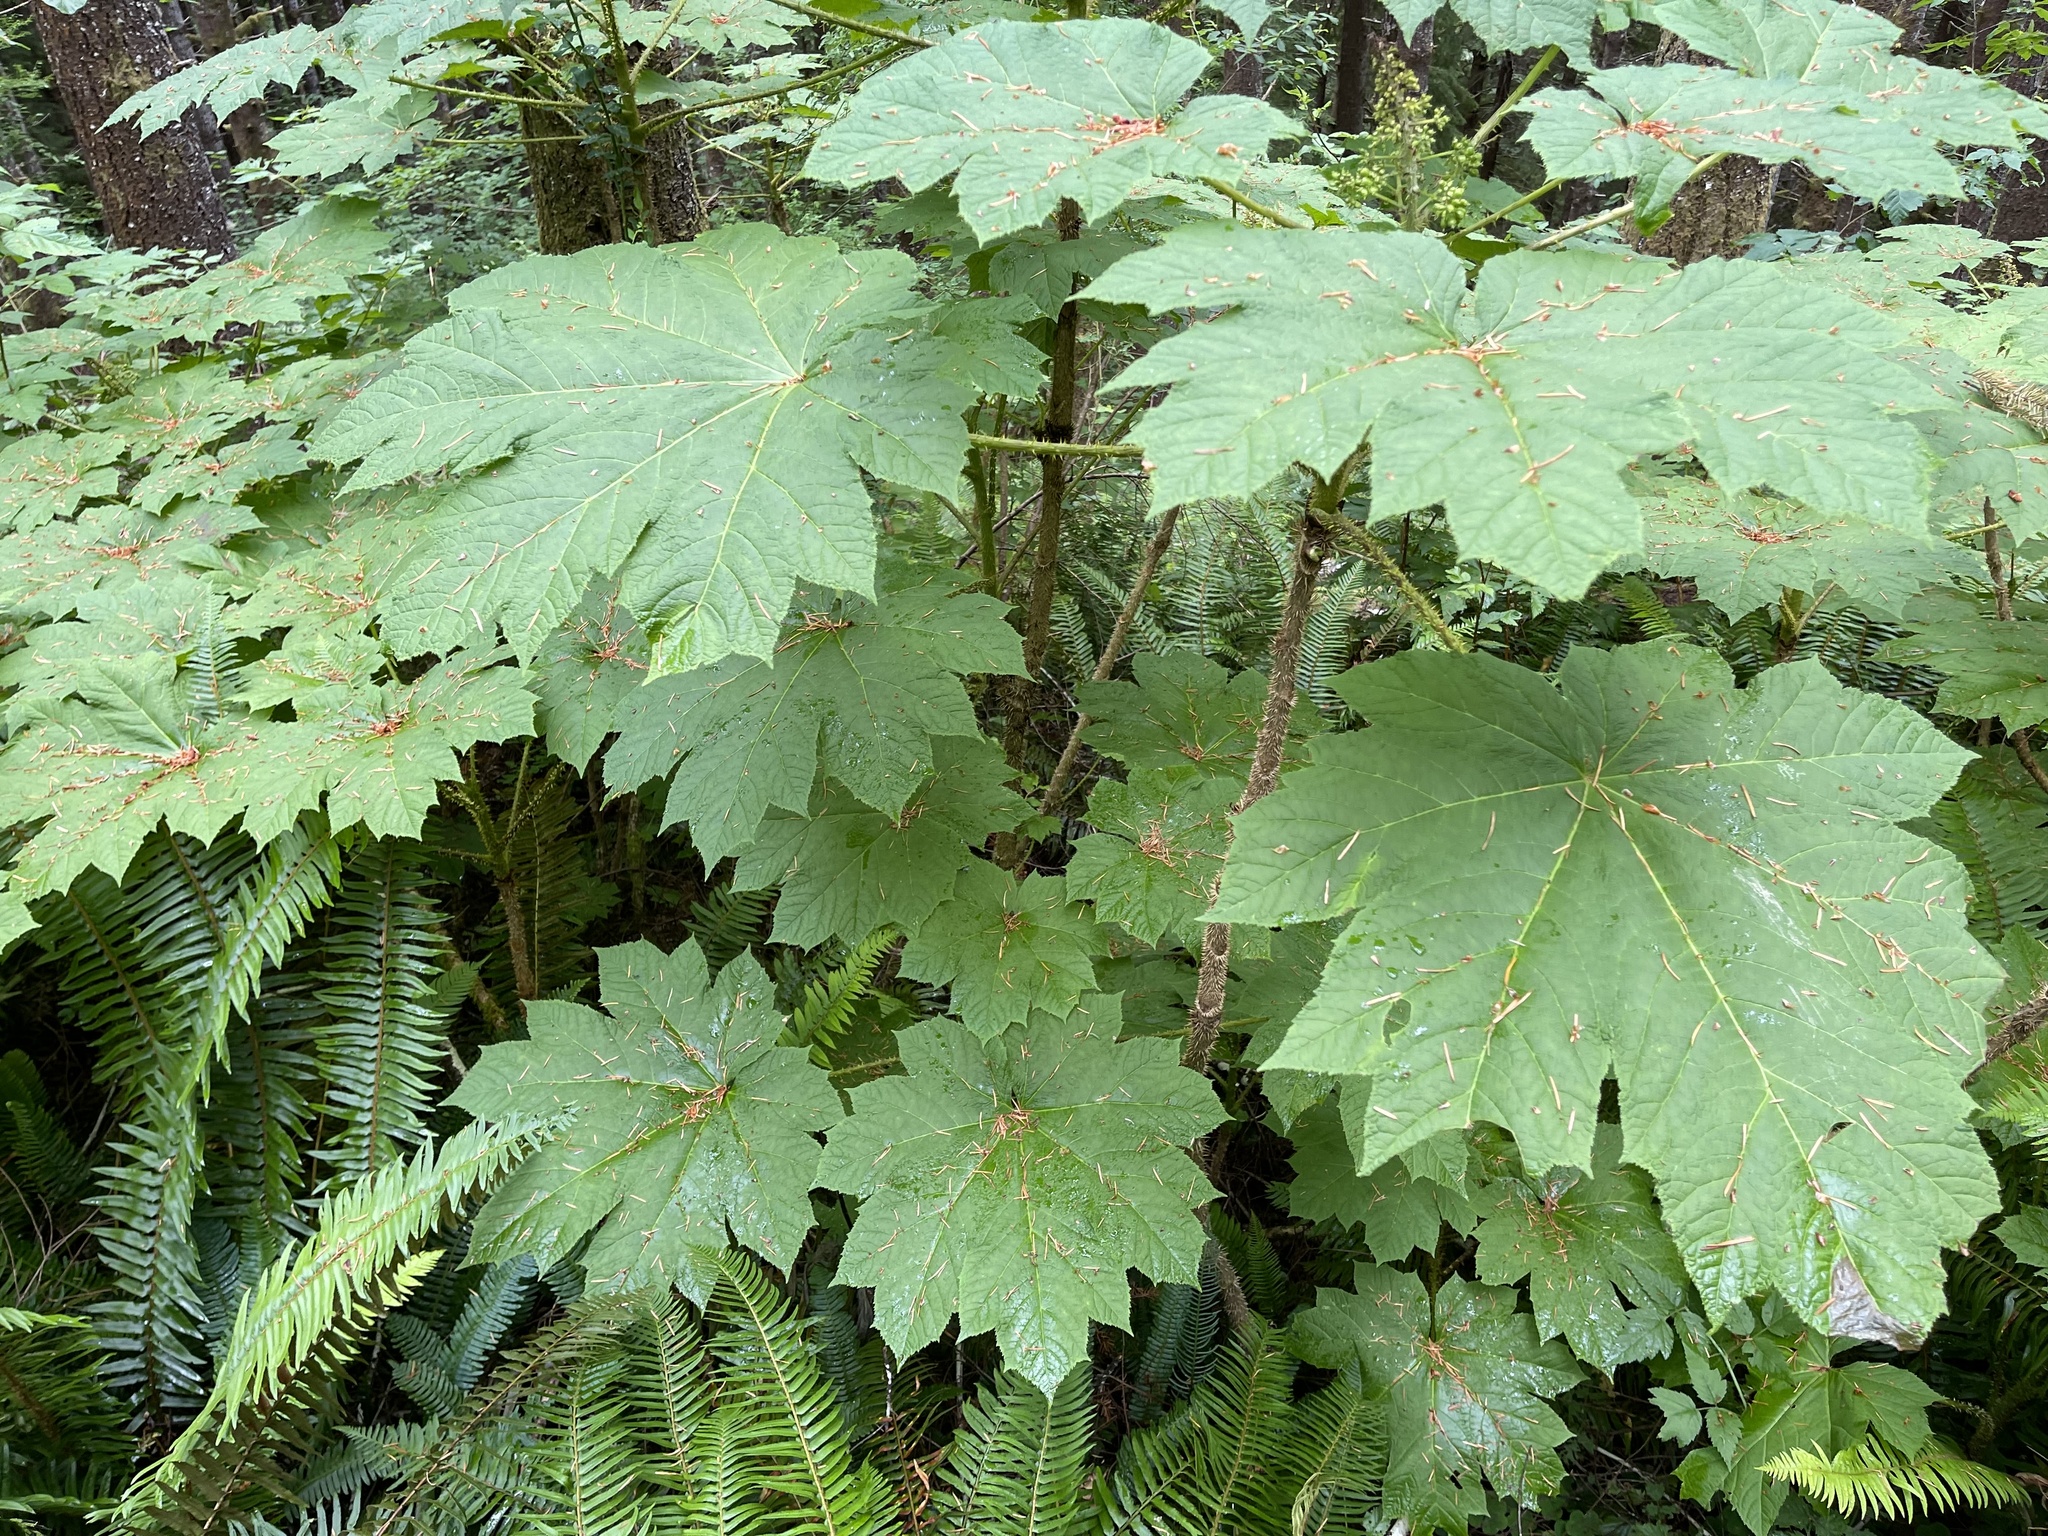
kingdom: Plantae
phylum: Tracheophyta
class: Magnoliopsida
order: Apiales
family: Araliaceae
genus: Oplopanax
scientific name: Oplopanax horridus
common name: Devil's walking-stick
